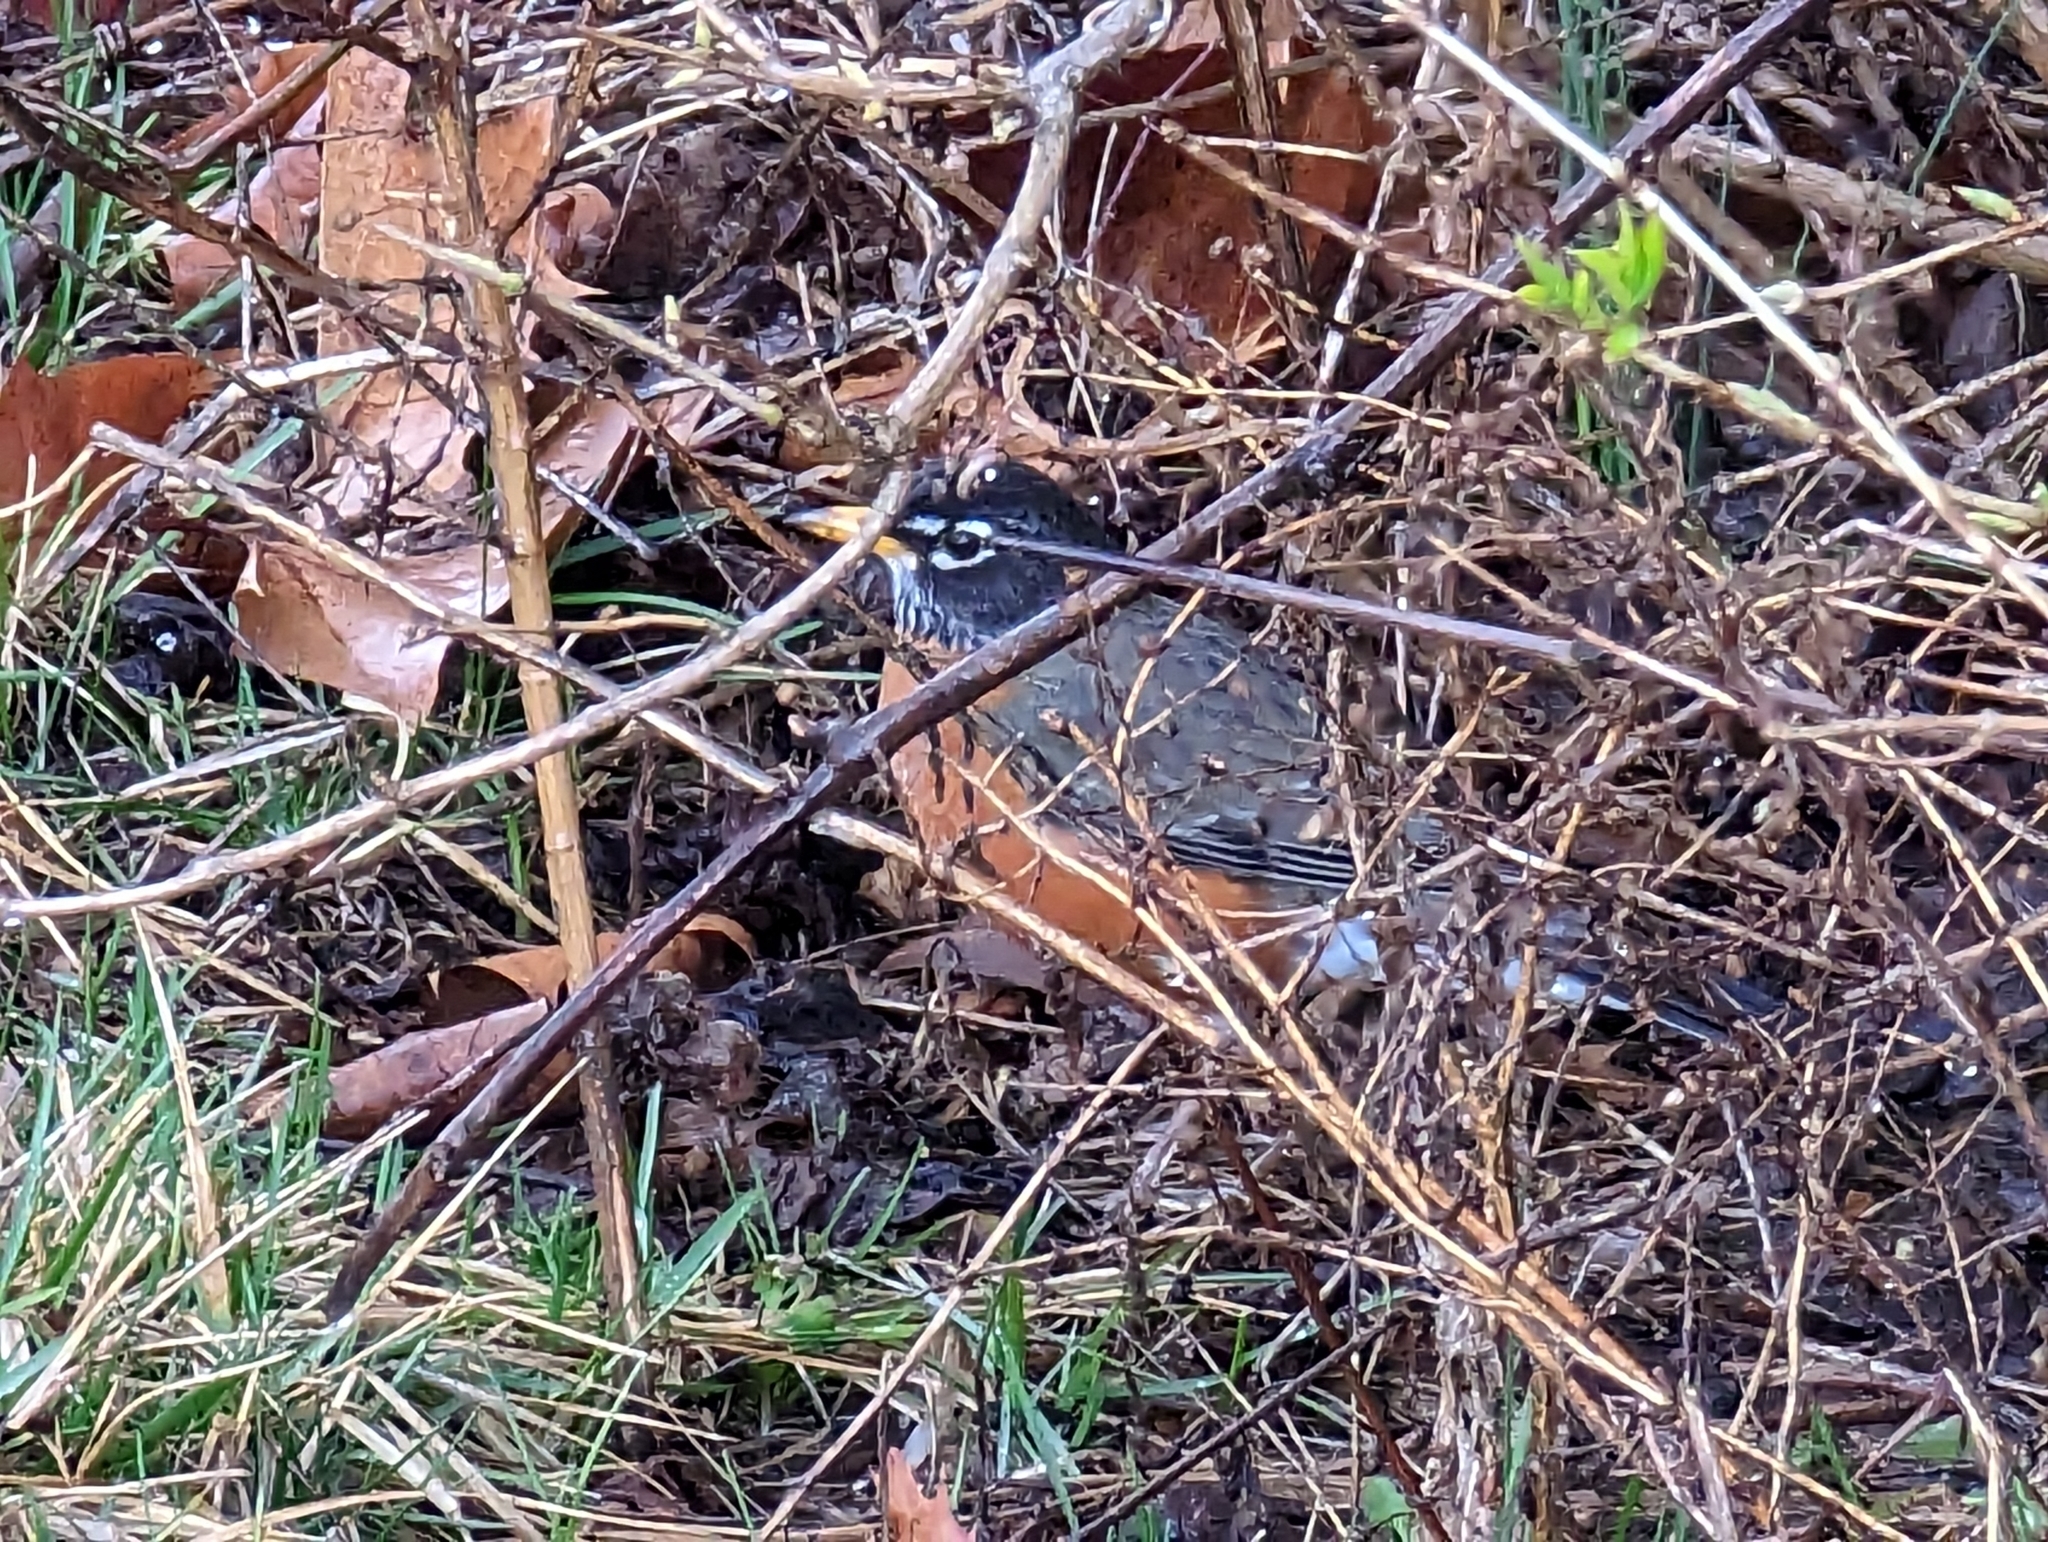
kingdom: Animalia
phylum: Chordata
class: Aves
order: Passeriformes
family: Turdidae
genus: Turdus
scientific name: Turdus migratorius
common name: American robin
